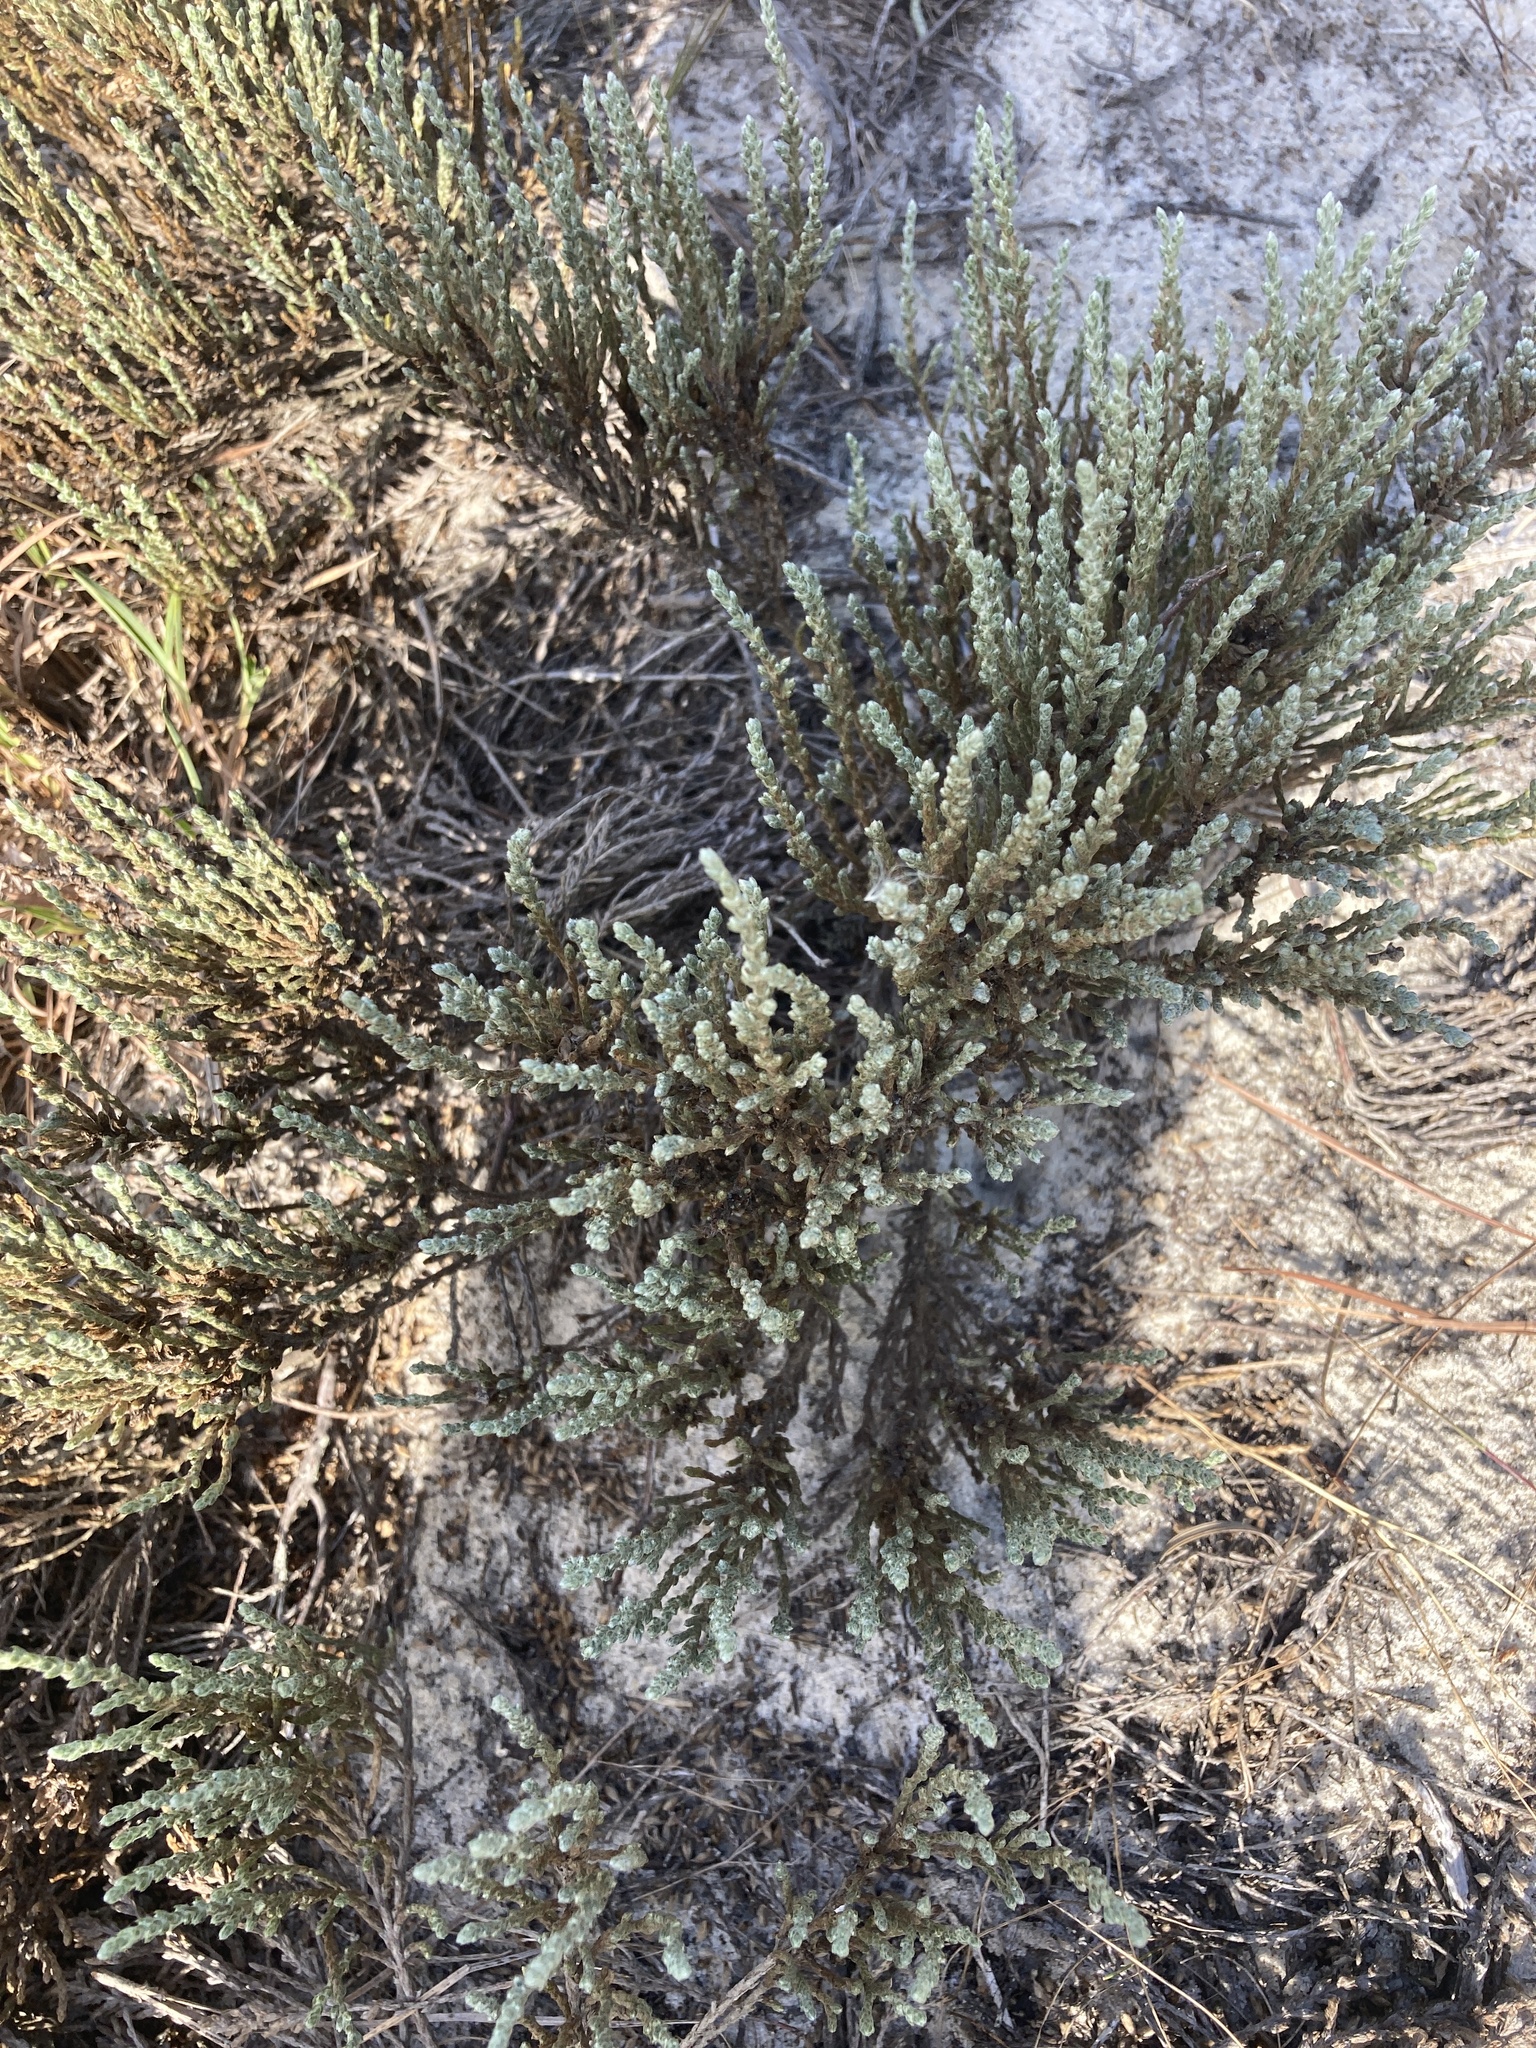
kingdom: Plantae
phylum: Tracheophyta
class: Magnoliopsida
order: Malvales
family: Cistaceae
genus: Hudsonia
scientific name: Hudsonia tomentosa
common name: Beach-heath
